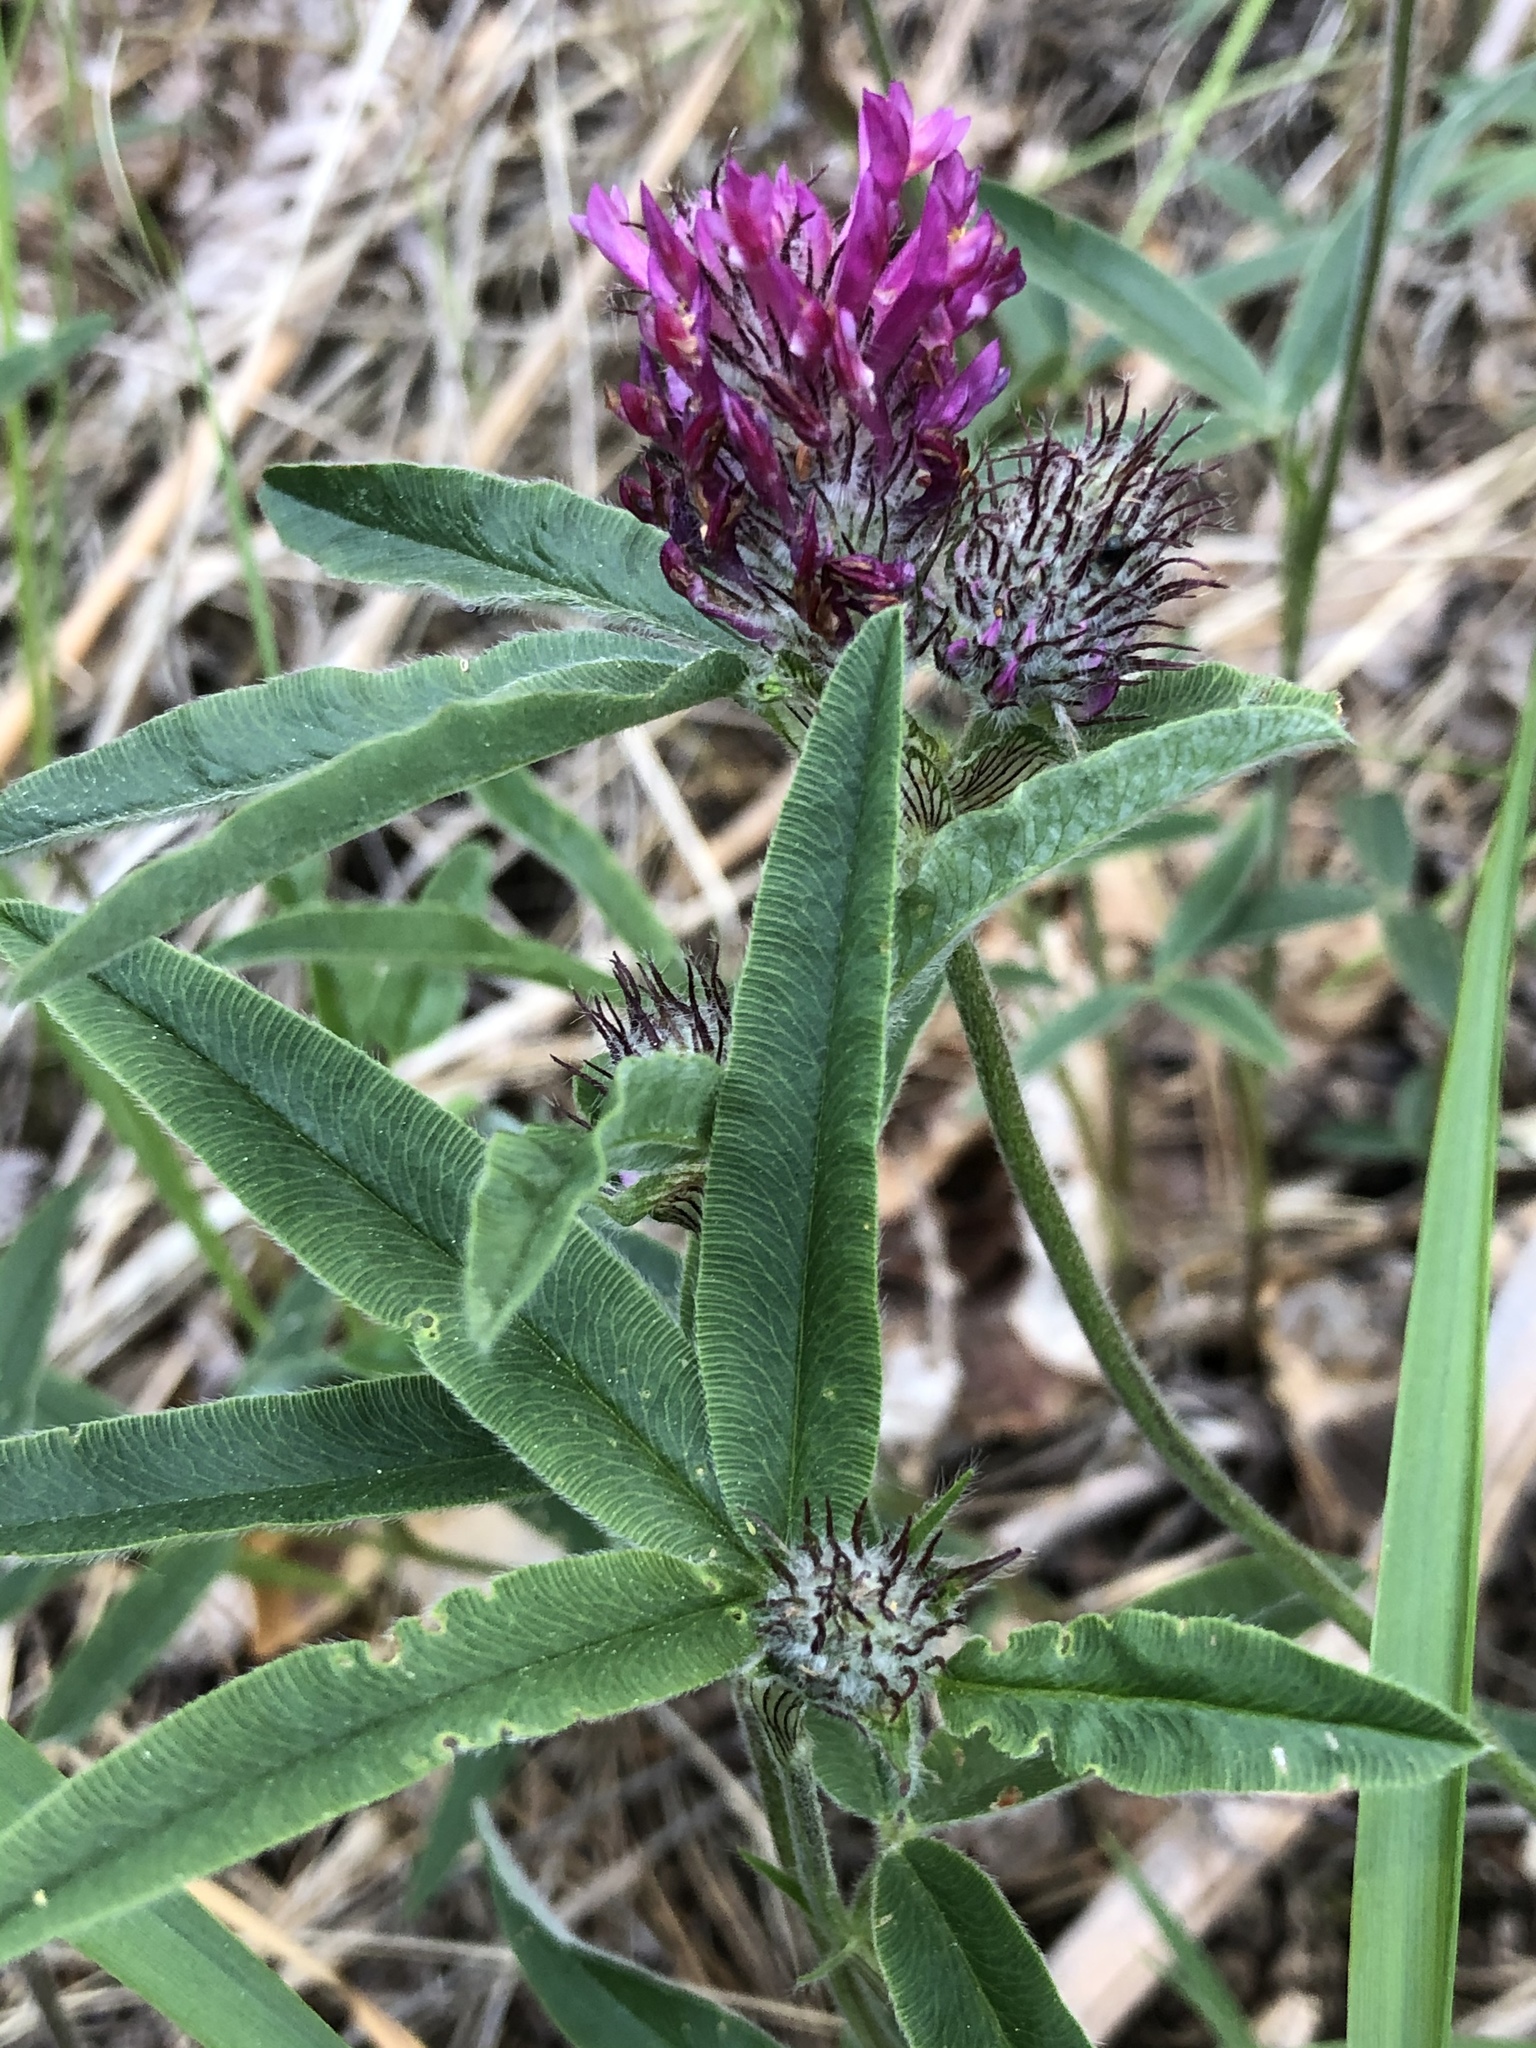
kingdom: Plantae
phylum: Tracheophyta
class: Magnoliopsida
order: Fabales
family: Fabaceae
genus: Trifolium
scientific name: Trifolium alpestre
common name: Owl-head clover
